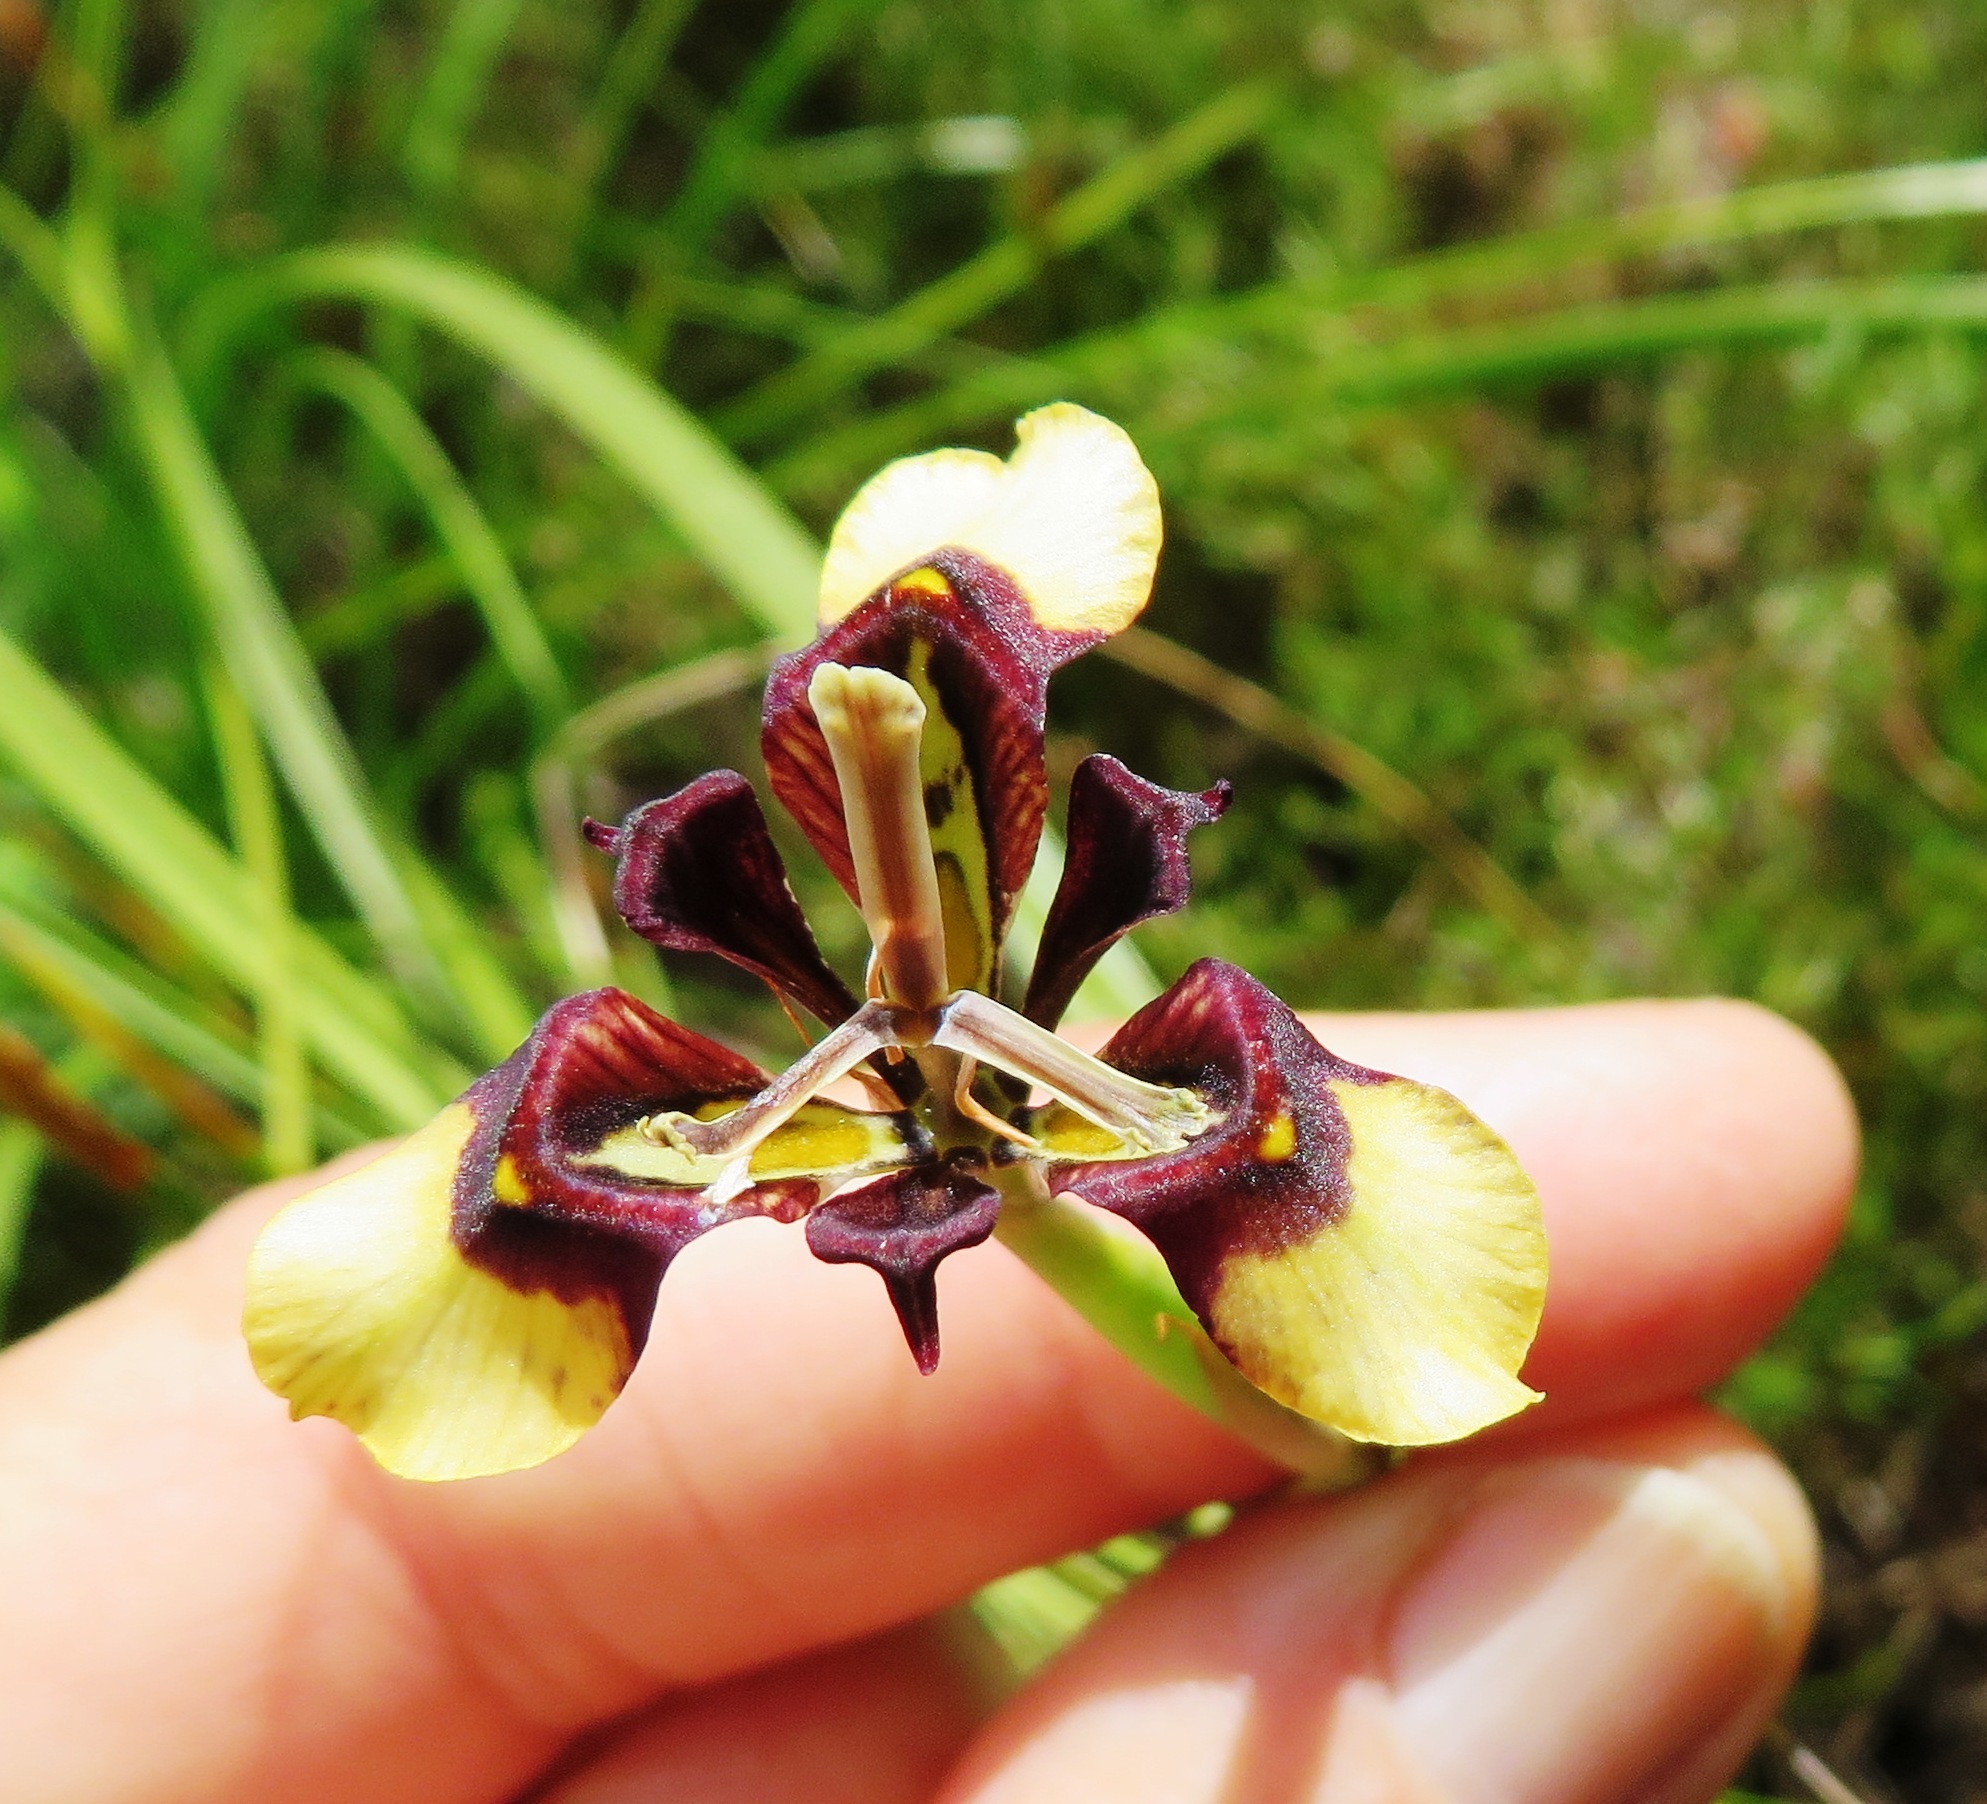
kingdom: Plantae
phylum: Tracheophyta
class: Liliopsida
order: Asparagales
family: Iridaceae
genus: Moraea
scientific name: Moraea lurida
